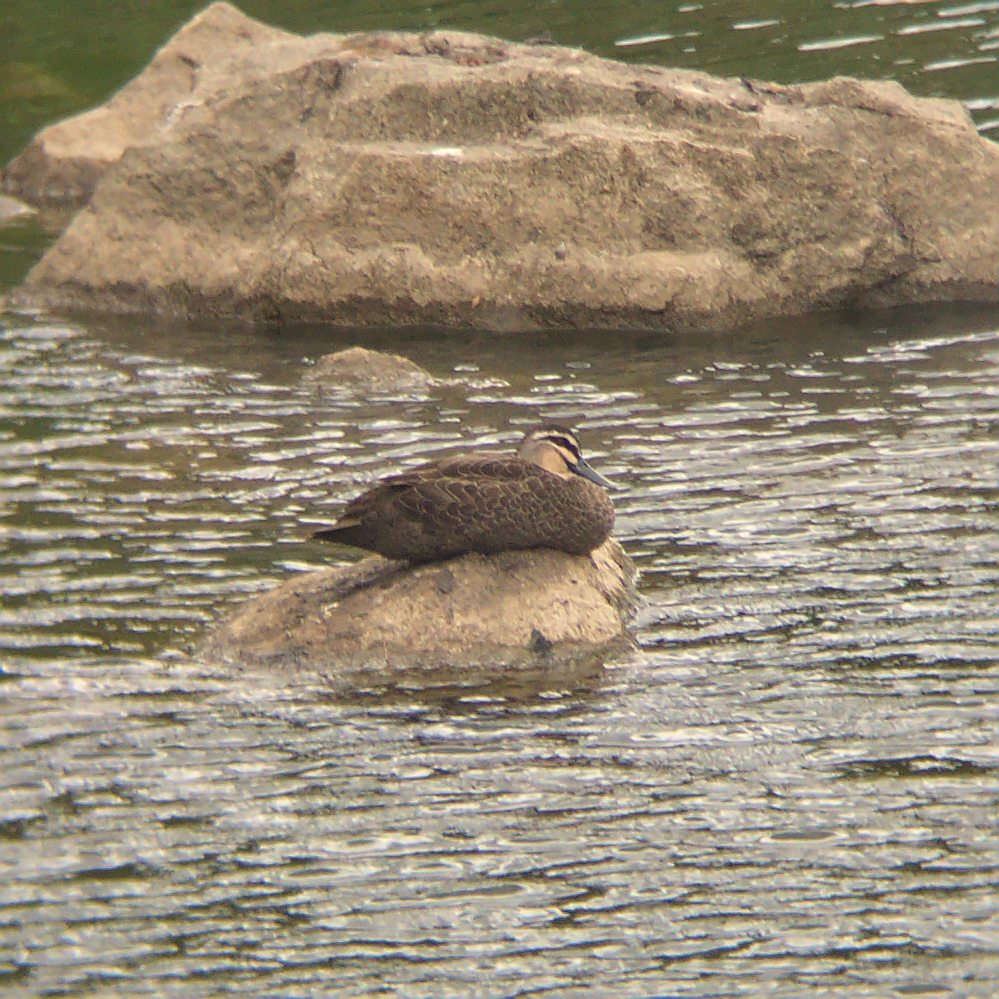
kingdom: Animalia
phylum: Chordata
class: Aves
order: Anseriformes
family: Anatidae
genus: Anas
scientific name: Anas superciliosa
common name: Pacific black duck
